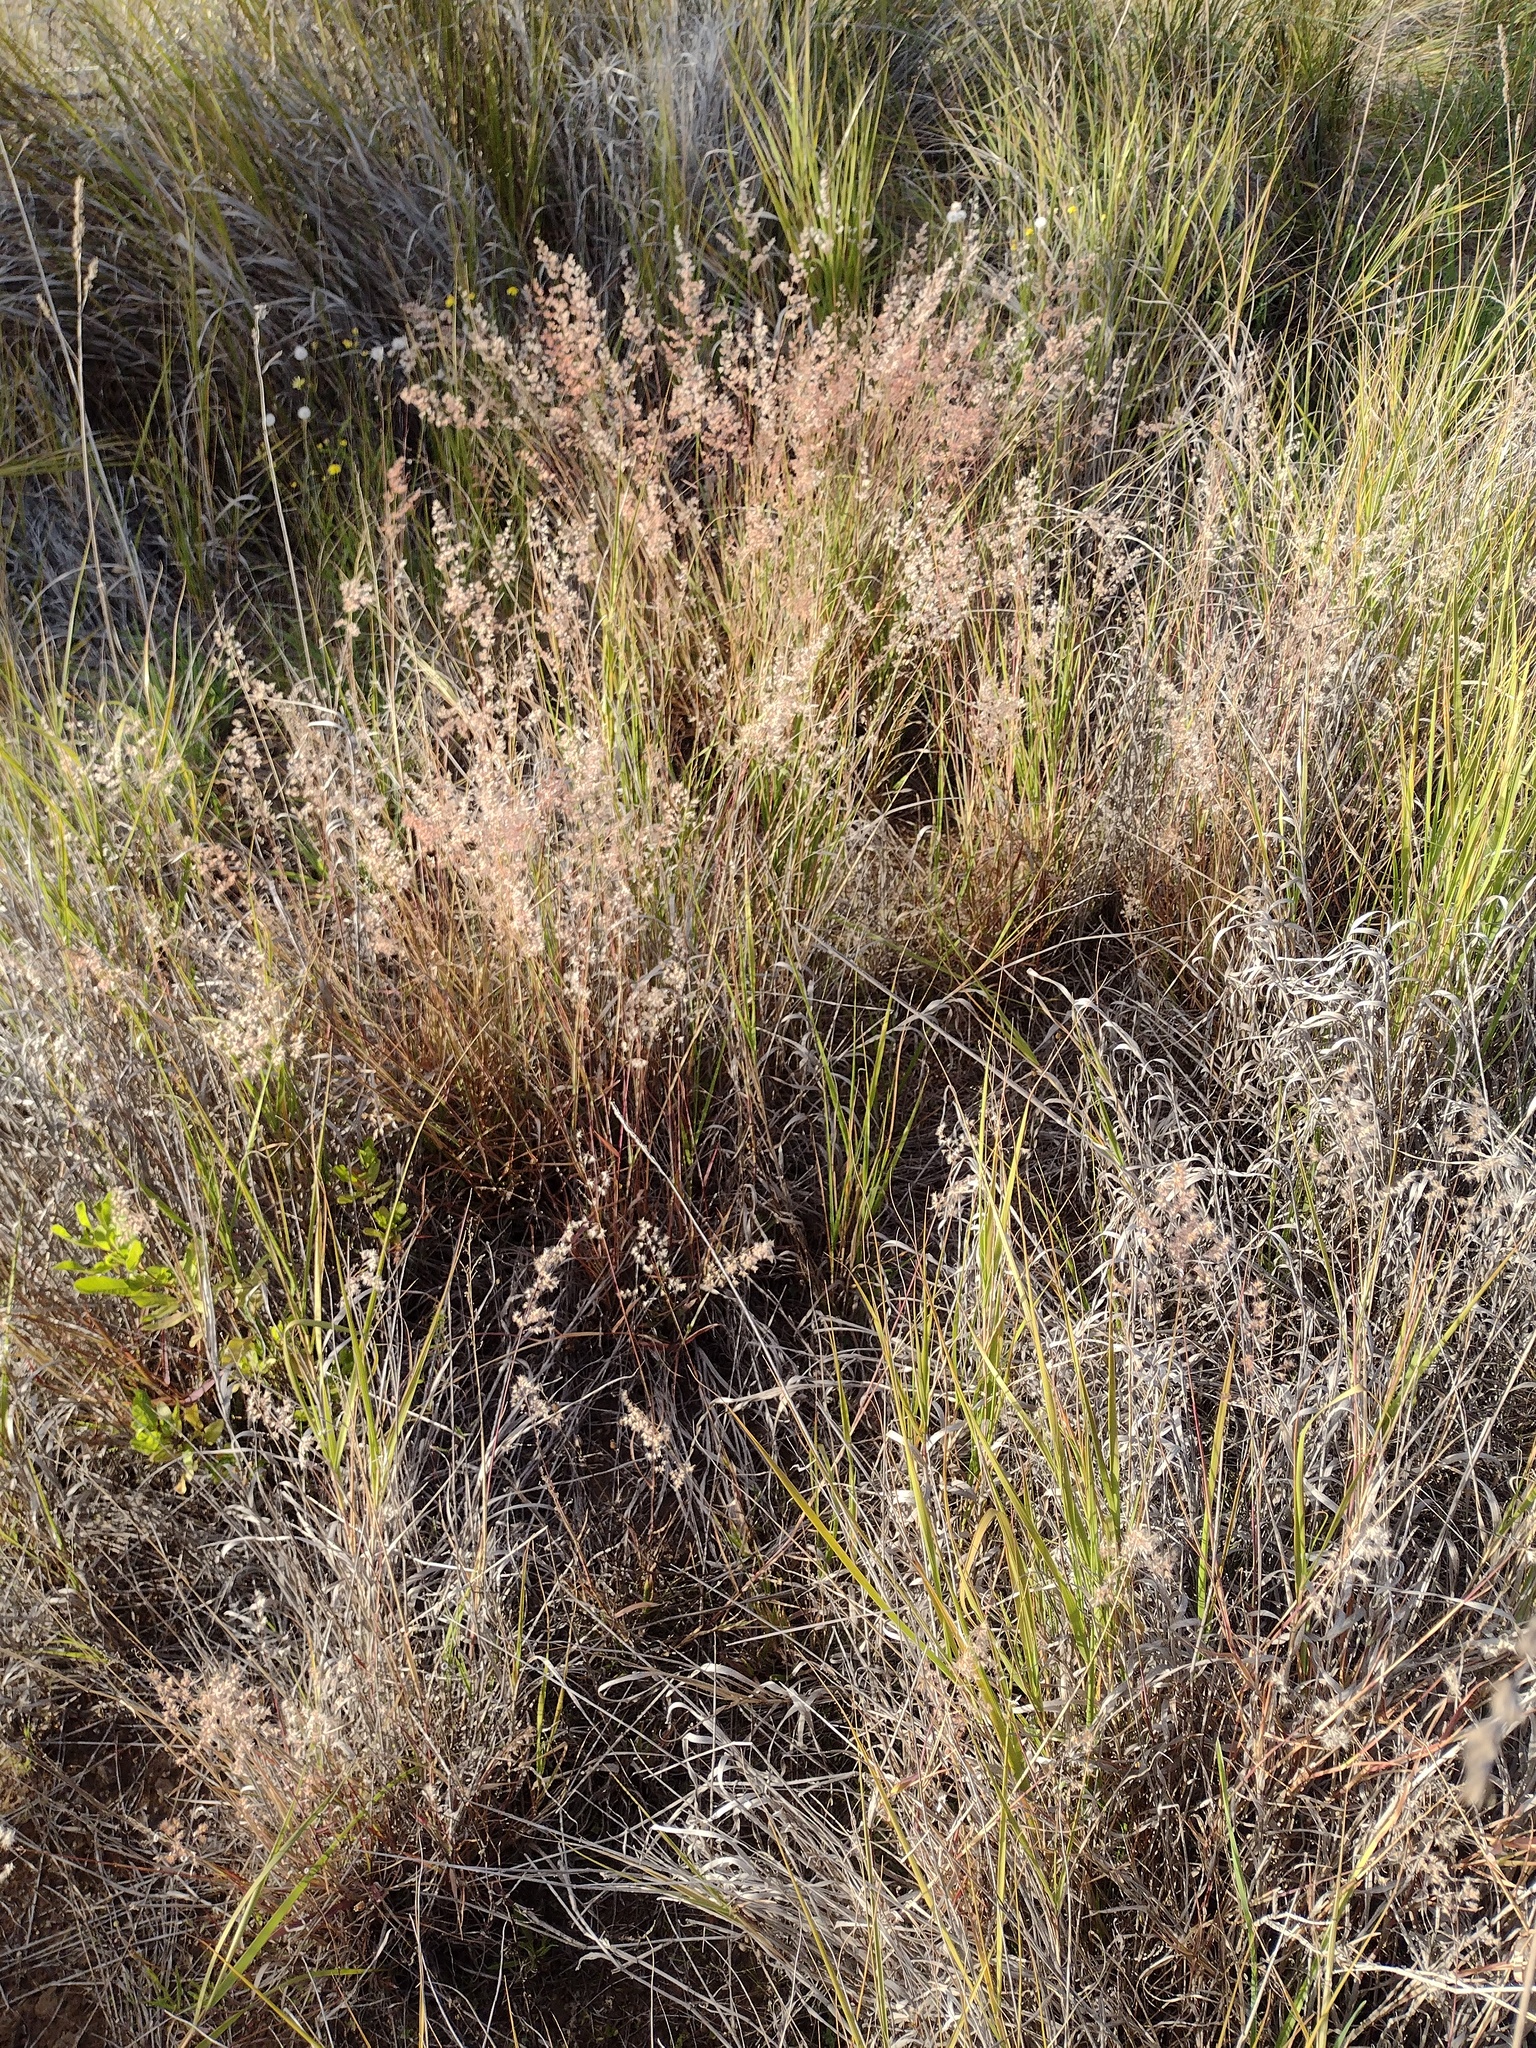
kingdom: Plantae
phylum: Tracheophyta
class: Liliopsida
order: Poales
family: Poaceae
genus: Melinis
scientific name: Melinis repens
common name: Rose natal grass
